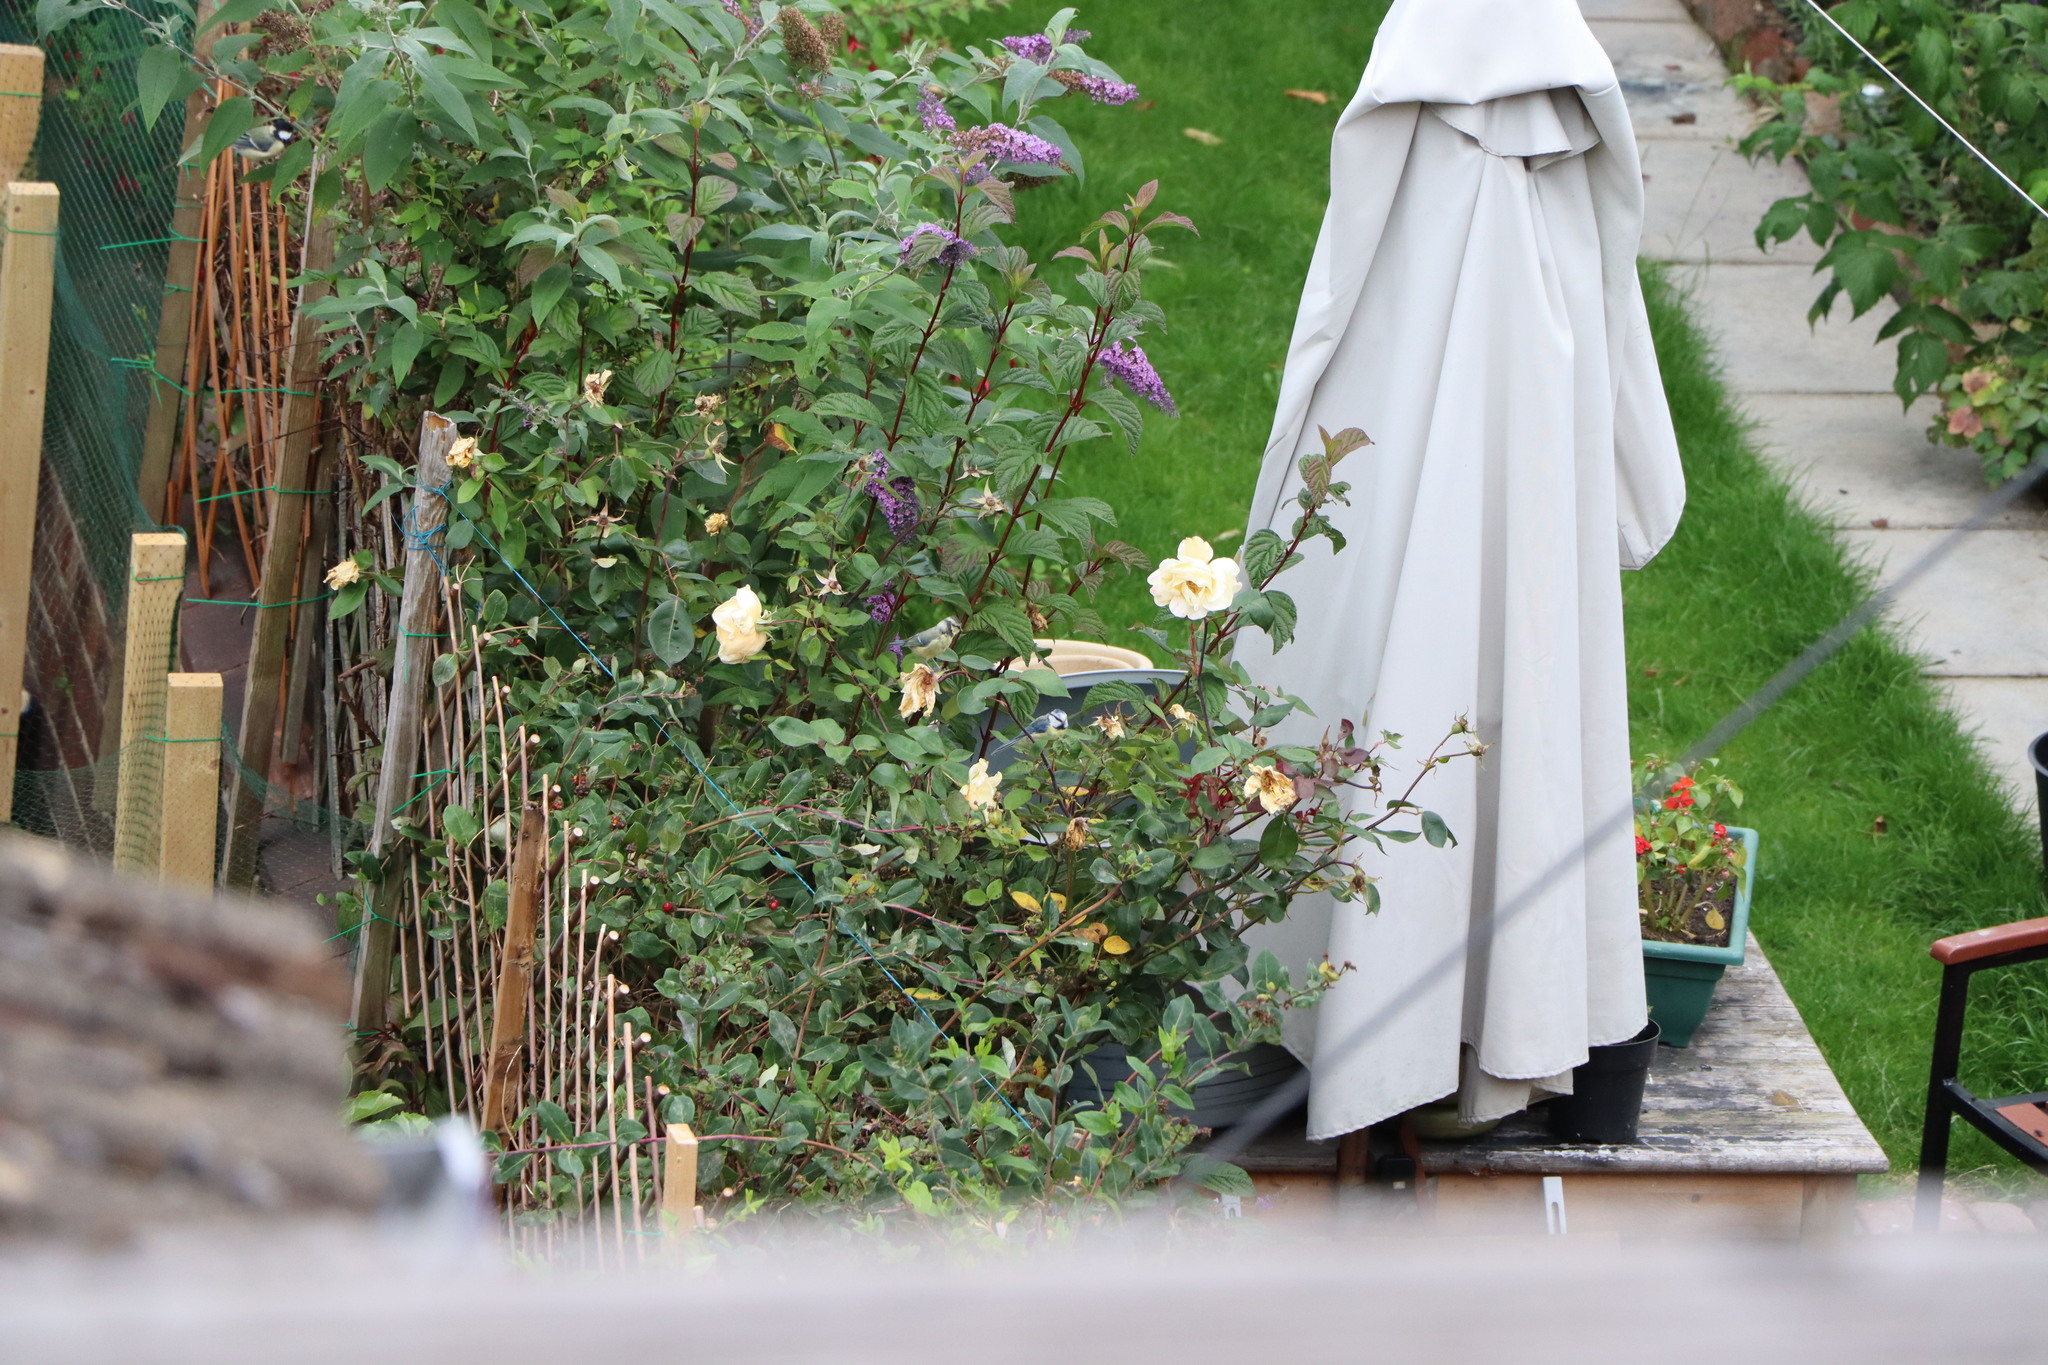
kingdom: Animalia
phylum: Chordata
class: Aves
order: Passeriformes
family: Paridae
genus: Cyanistes
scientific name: Cyanistes caeruleus
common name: Eurasian blue tit
